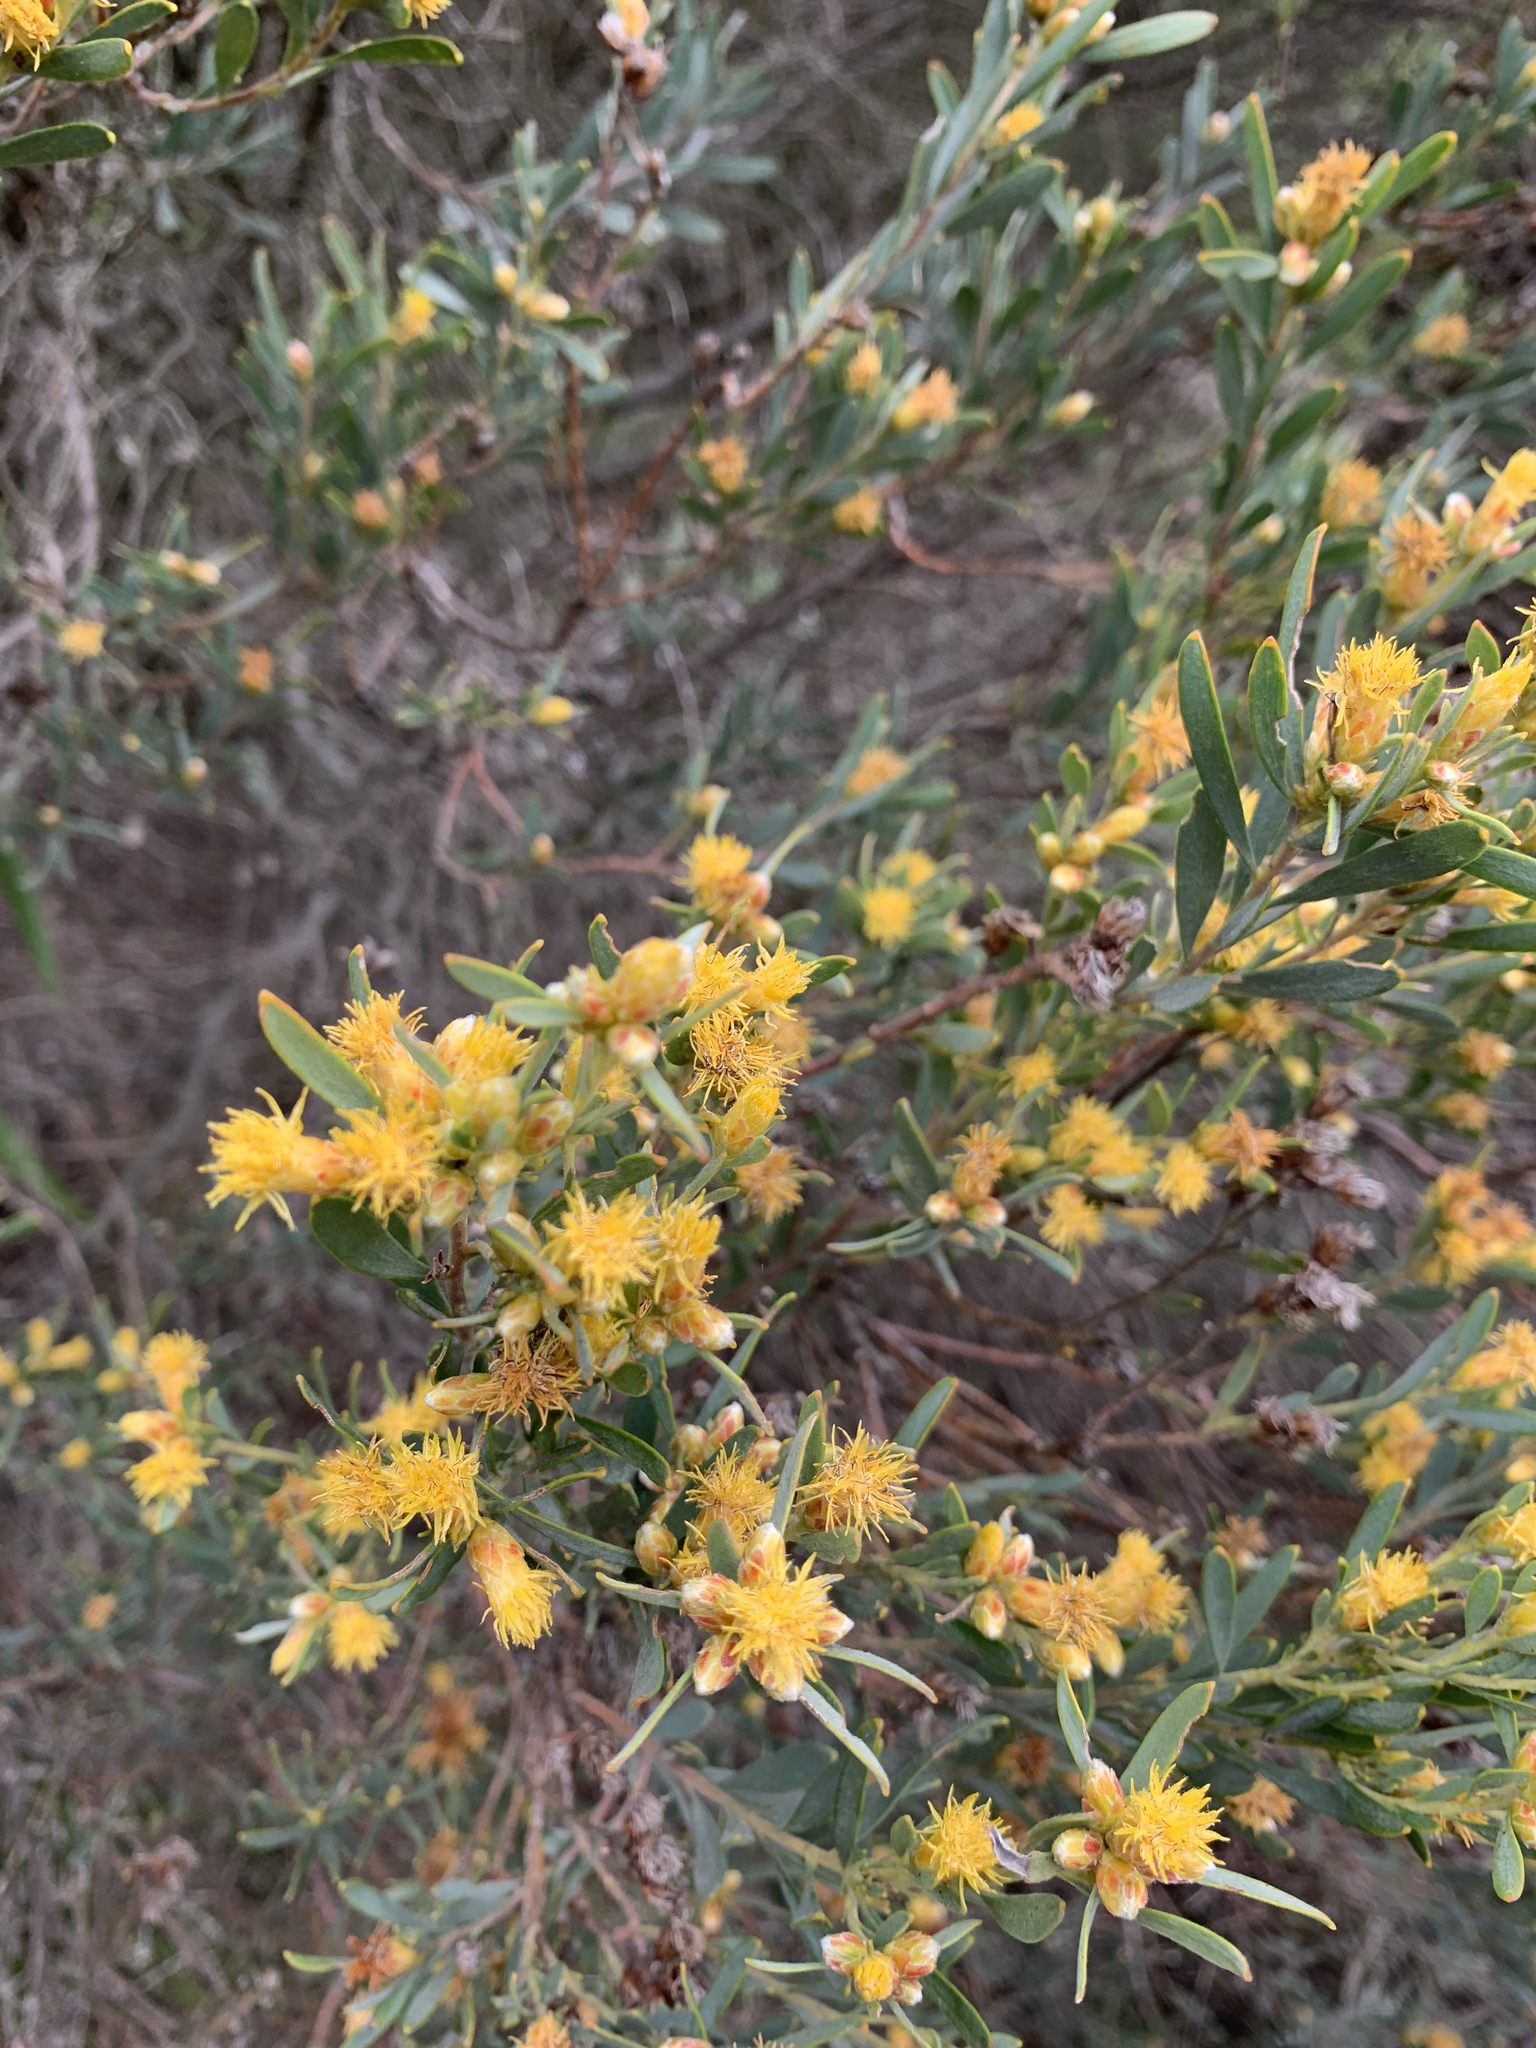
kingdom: Plantae
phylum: Tracheophyta
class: Magnoliopsida
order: Proteales
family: Proteaceae
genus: Leucadendron
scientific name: Leucadendron rubrum
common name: Spinning top
